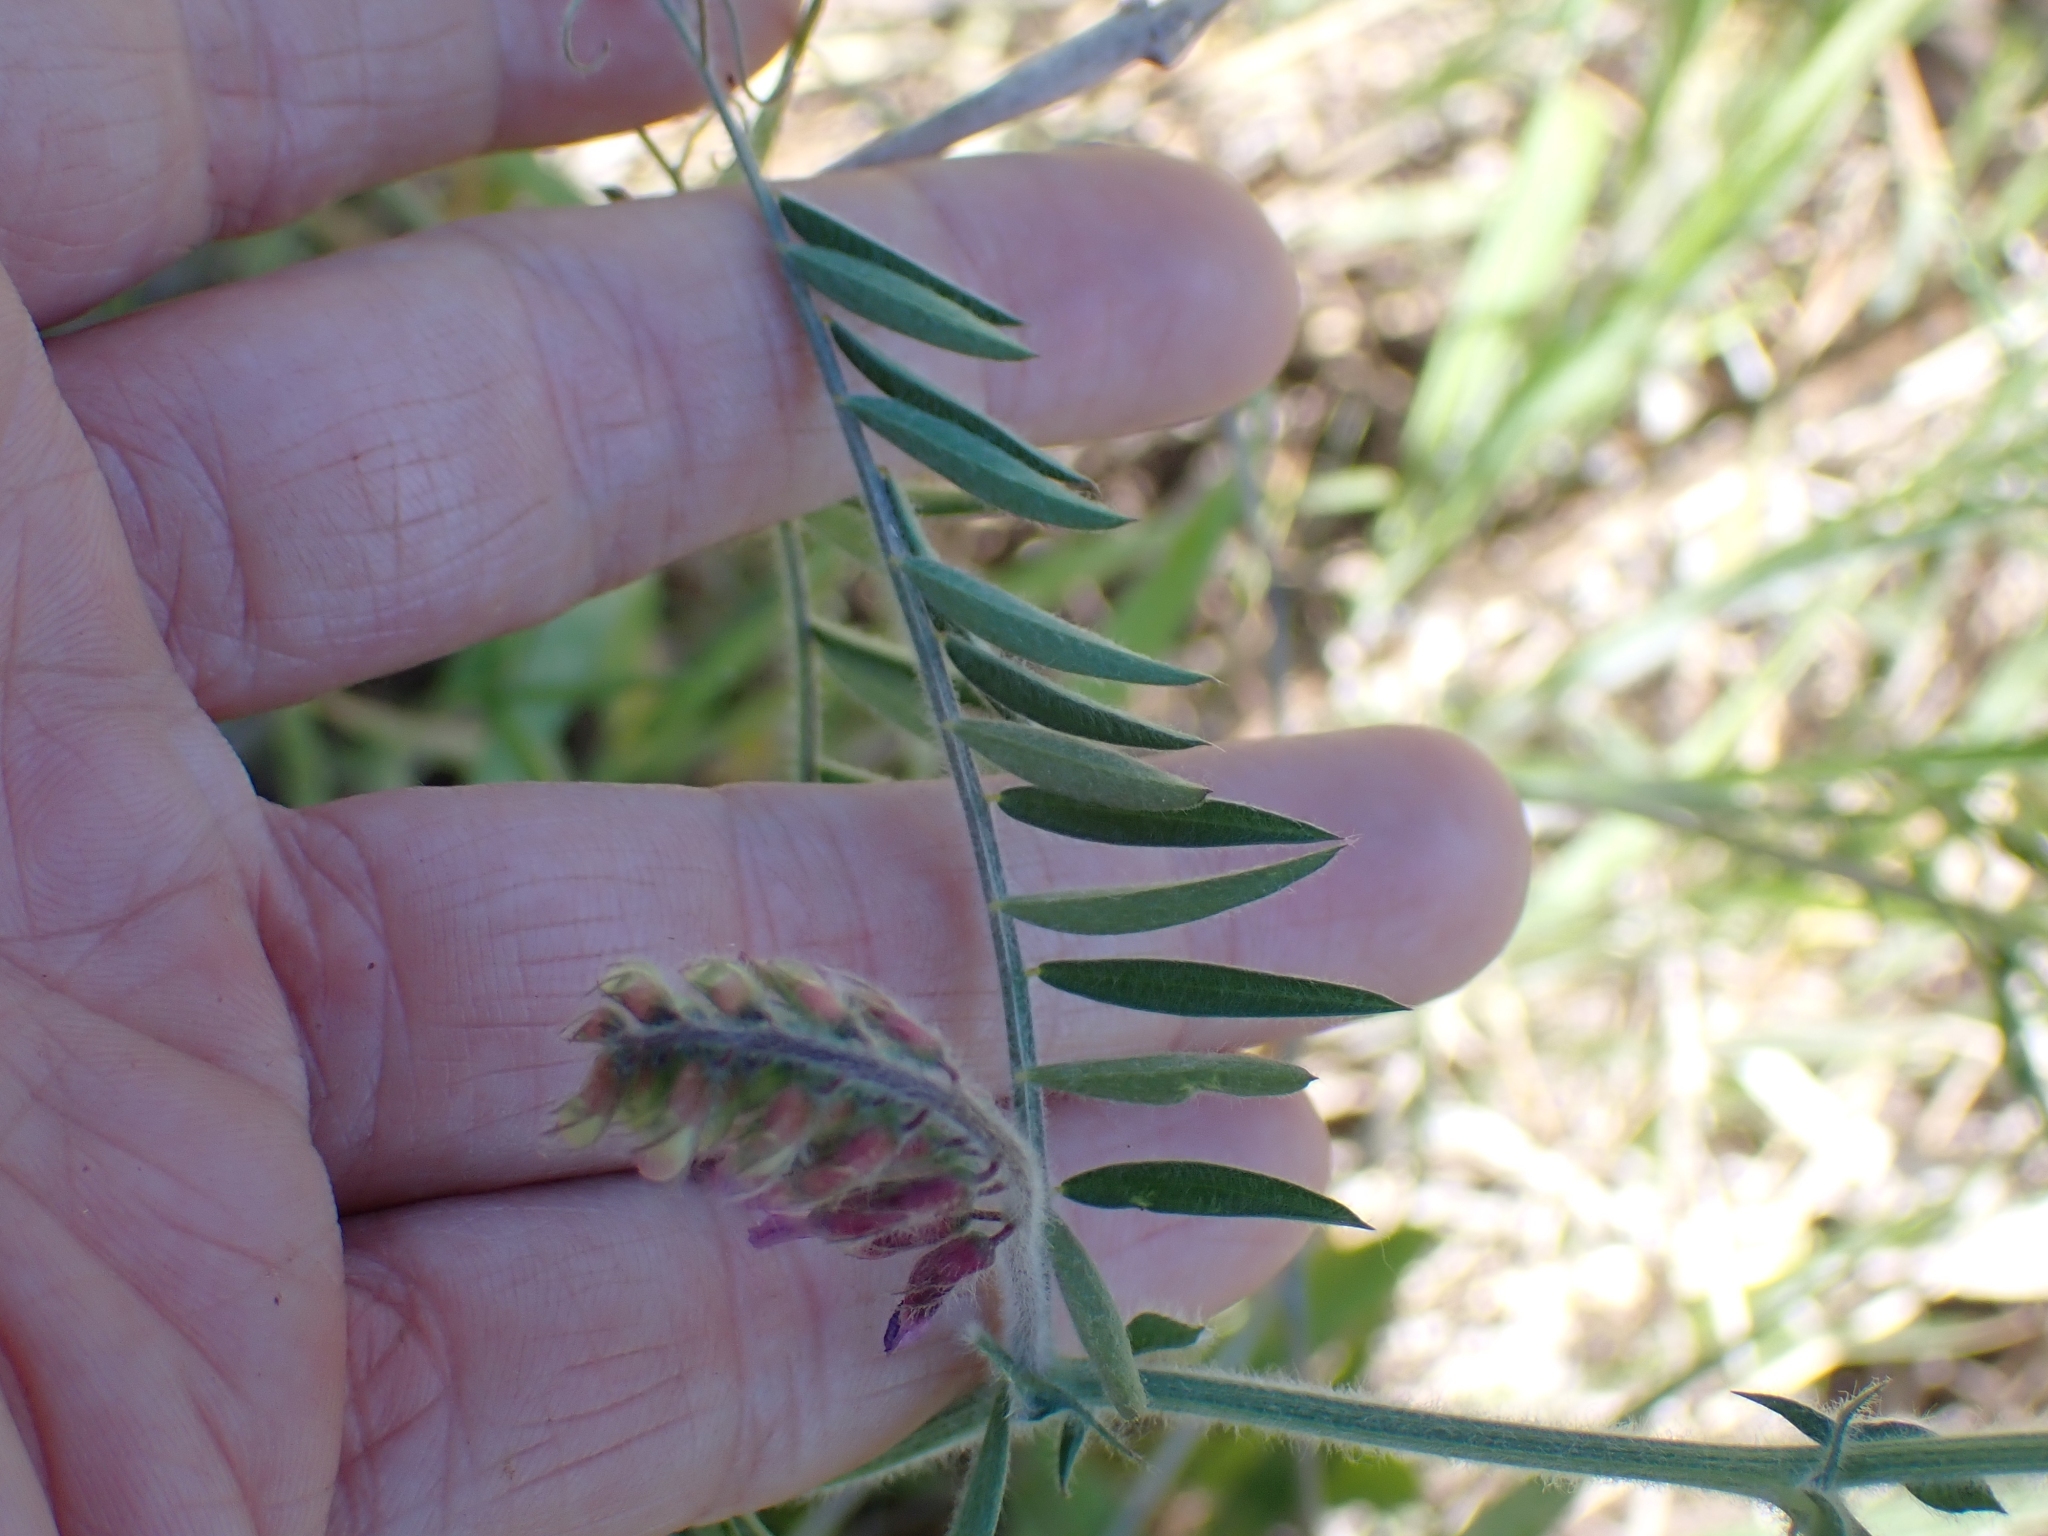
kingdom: Plantae
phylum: Tracheophyta
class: Magnoliopsida
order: Fabales
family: Fabaceae
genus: Vicia
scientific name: Vicia villosa
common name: Fodder vetch
